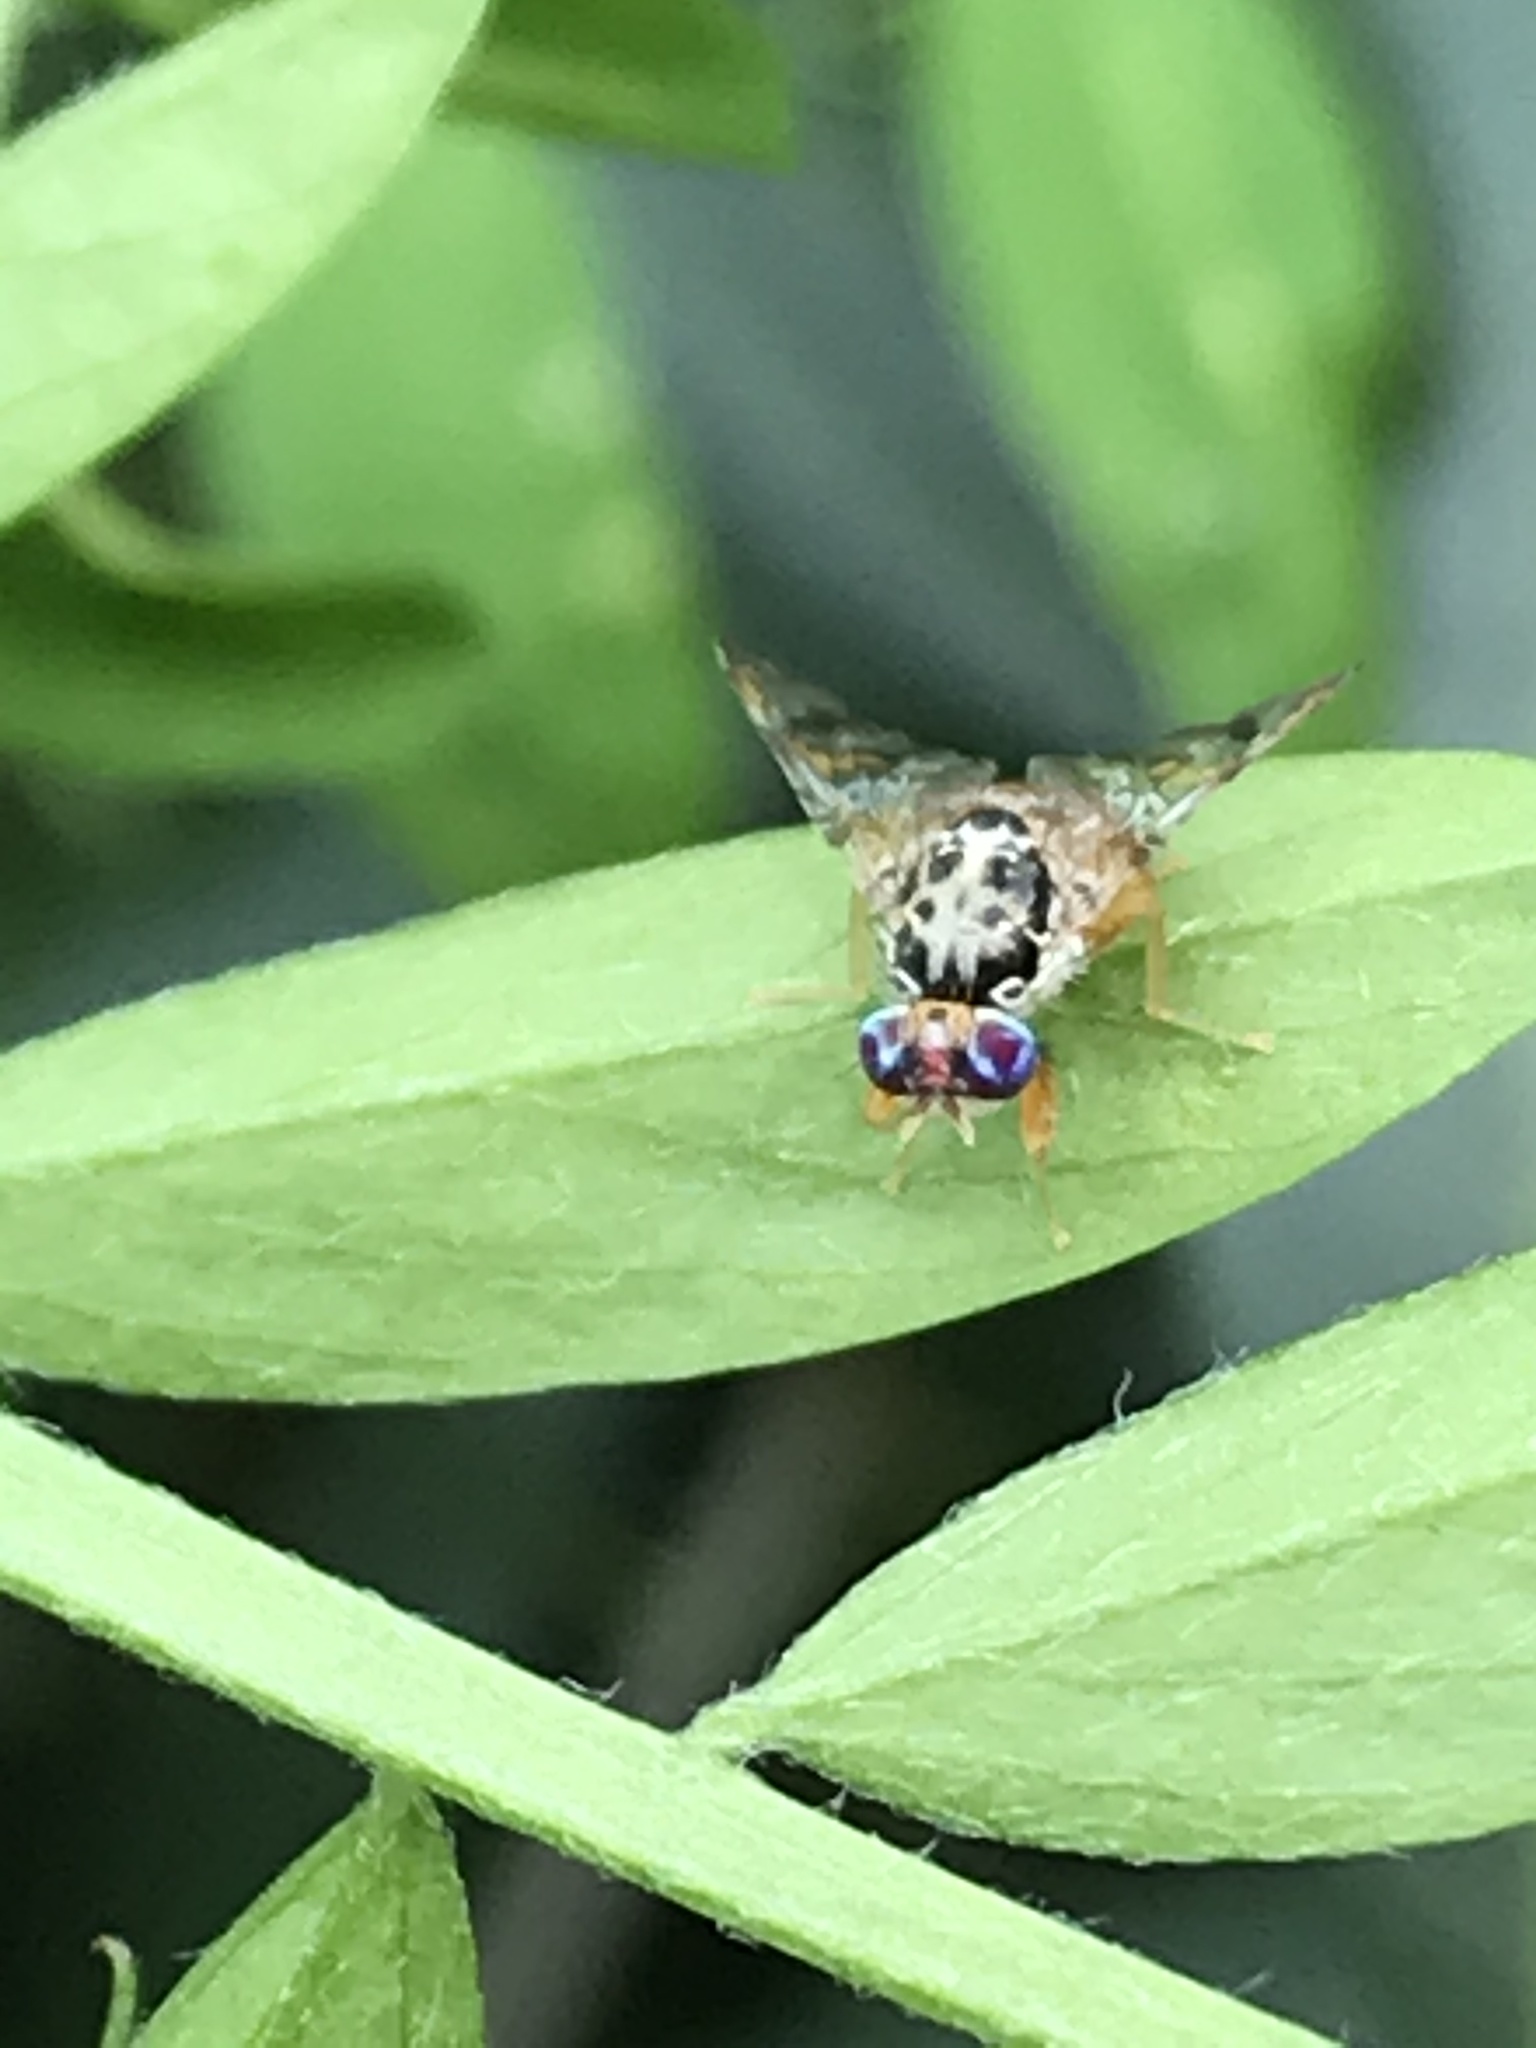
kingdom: Animalia
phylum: Arthropoda
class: Insecta
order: Diptera
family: Tephritidae
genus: Ceratitis
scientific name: Ceratitis capitata
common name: Mediterranean fruit fly
